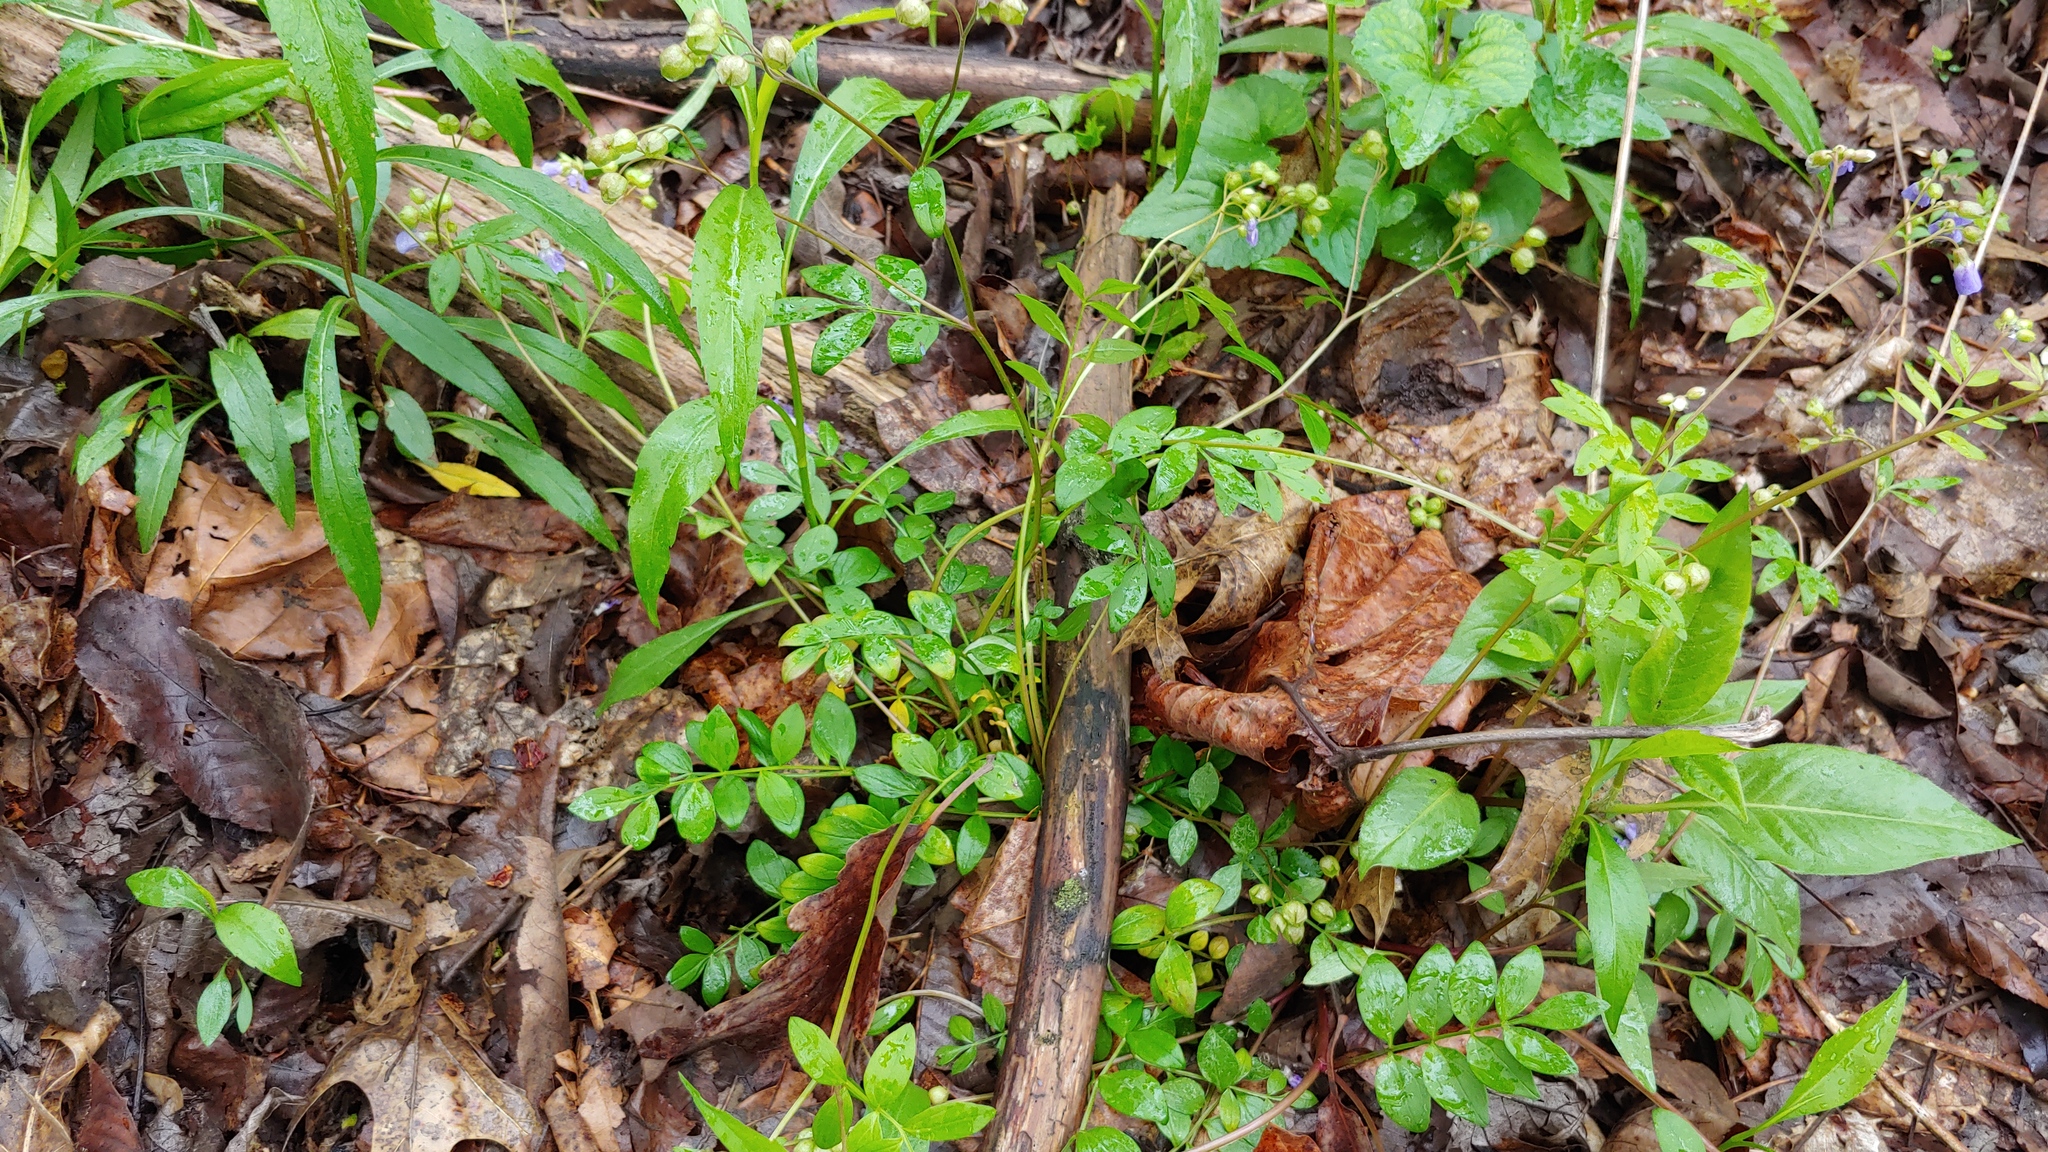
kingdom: Plantae
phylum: Tracheophyta
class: Magnoliopsida
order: Ericales
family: Polemoniaceae
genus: Polemonium
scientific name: Polemonium reptans
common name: Creeping jacob's-ladder
